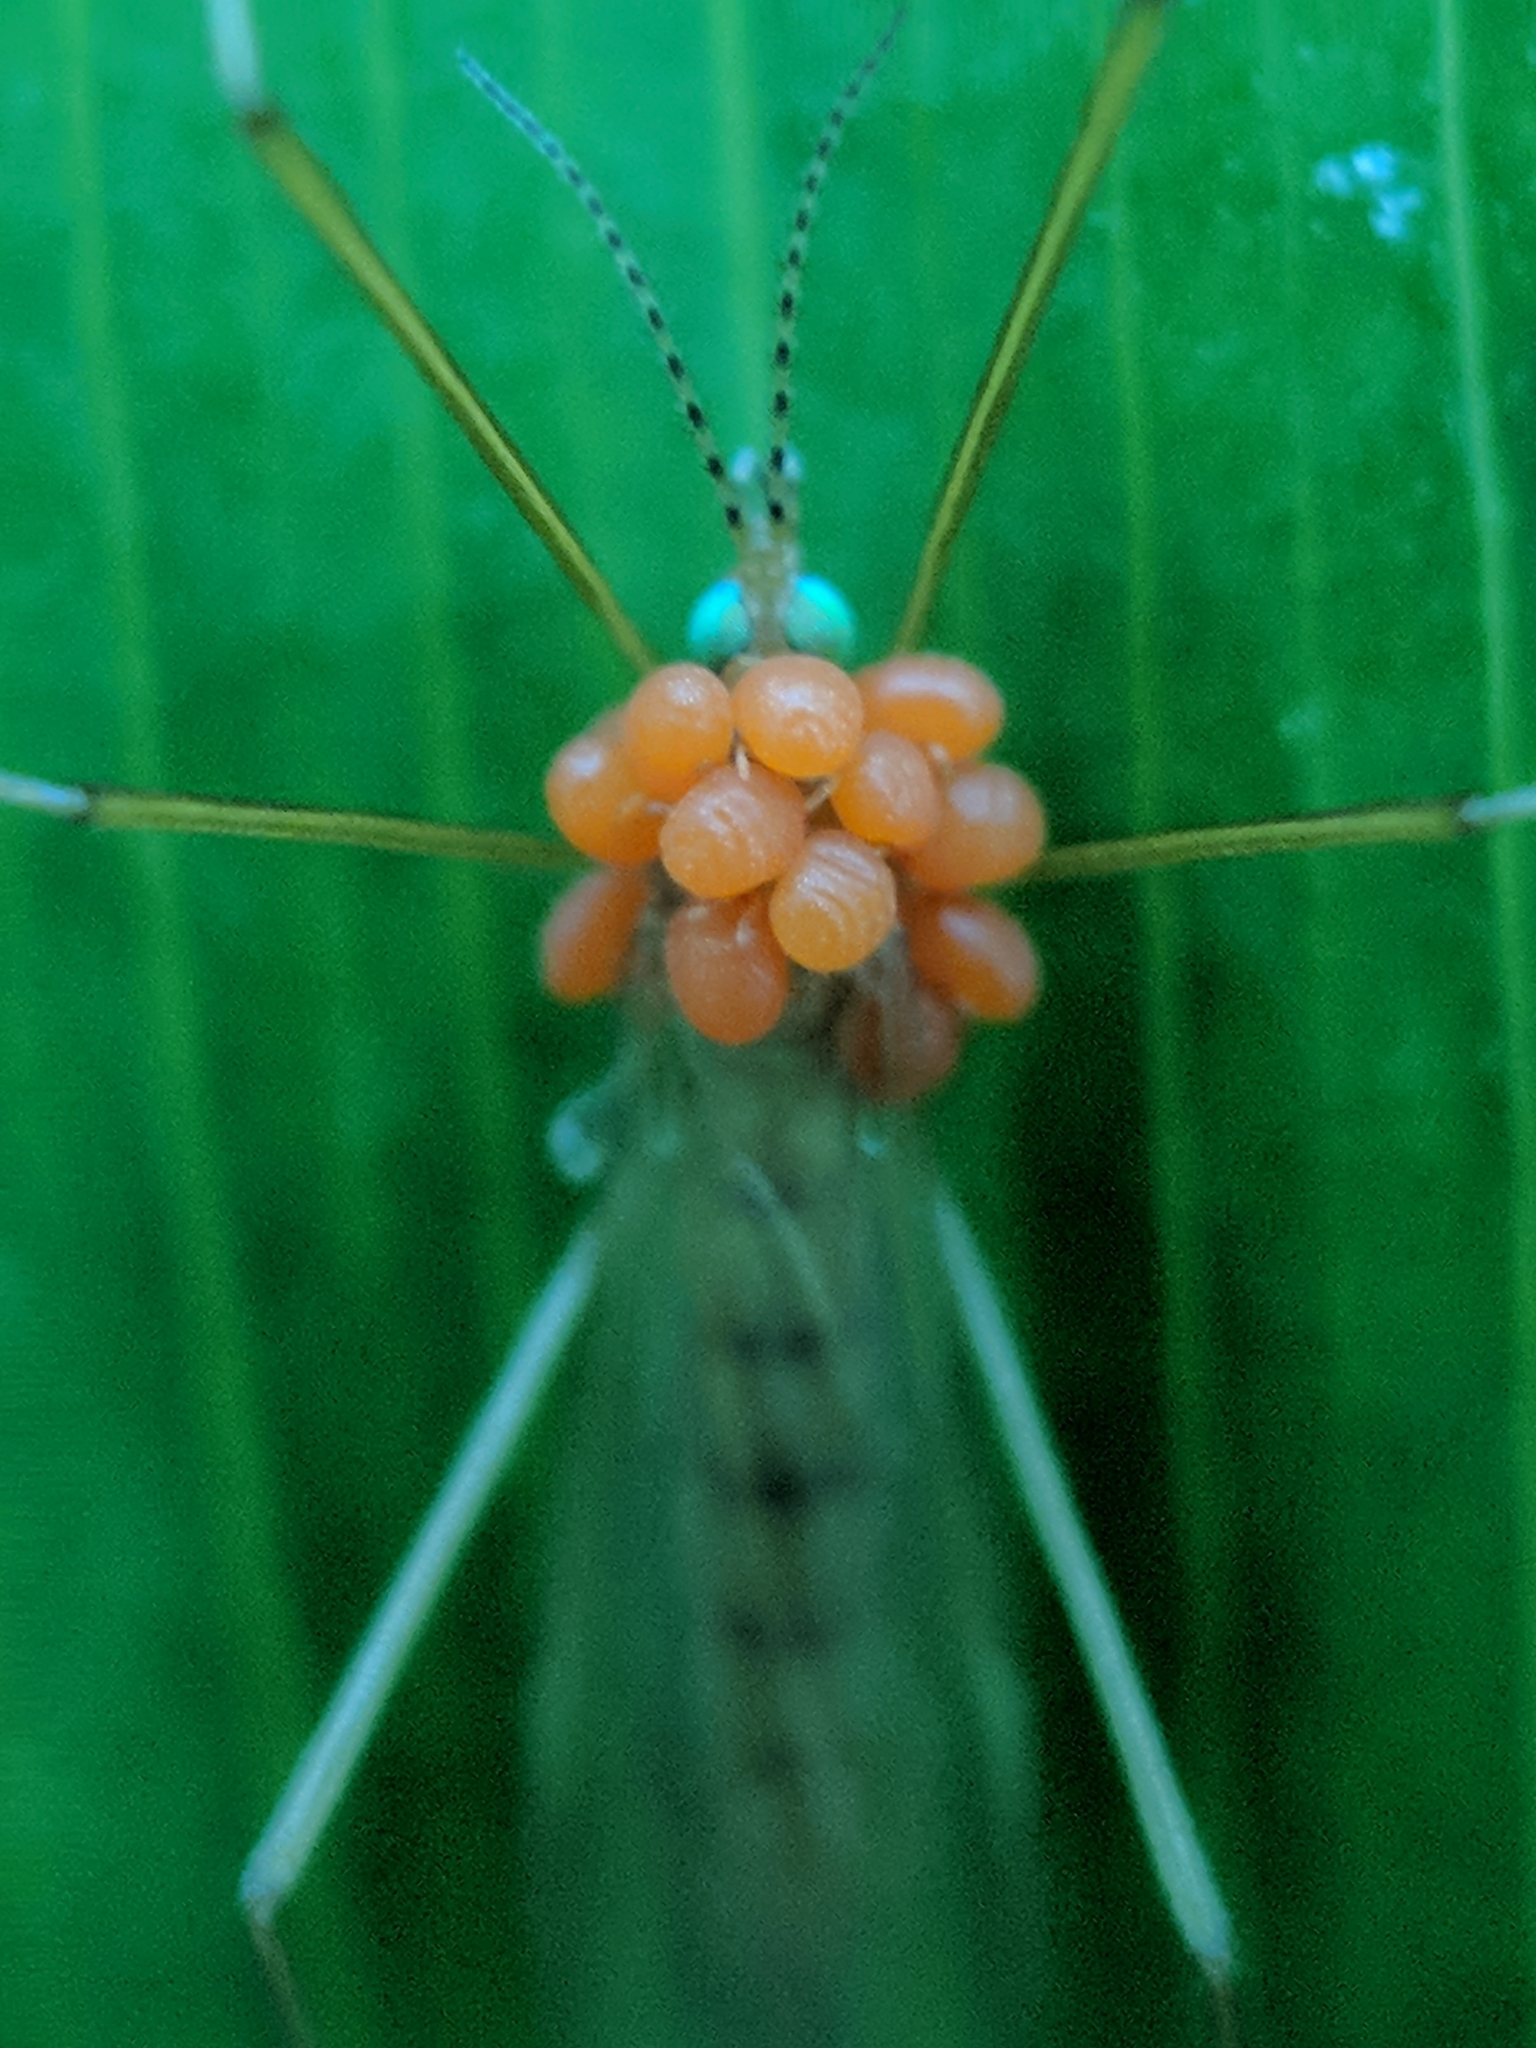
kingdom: Animalia
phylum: Arthropoda
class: Insecta
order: Diptera
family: Limoniidae
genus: Atarba
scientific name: Atarba picticornis
